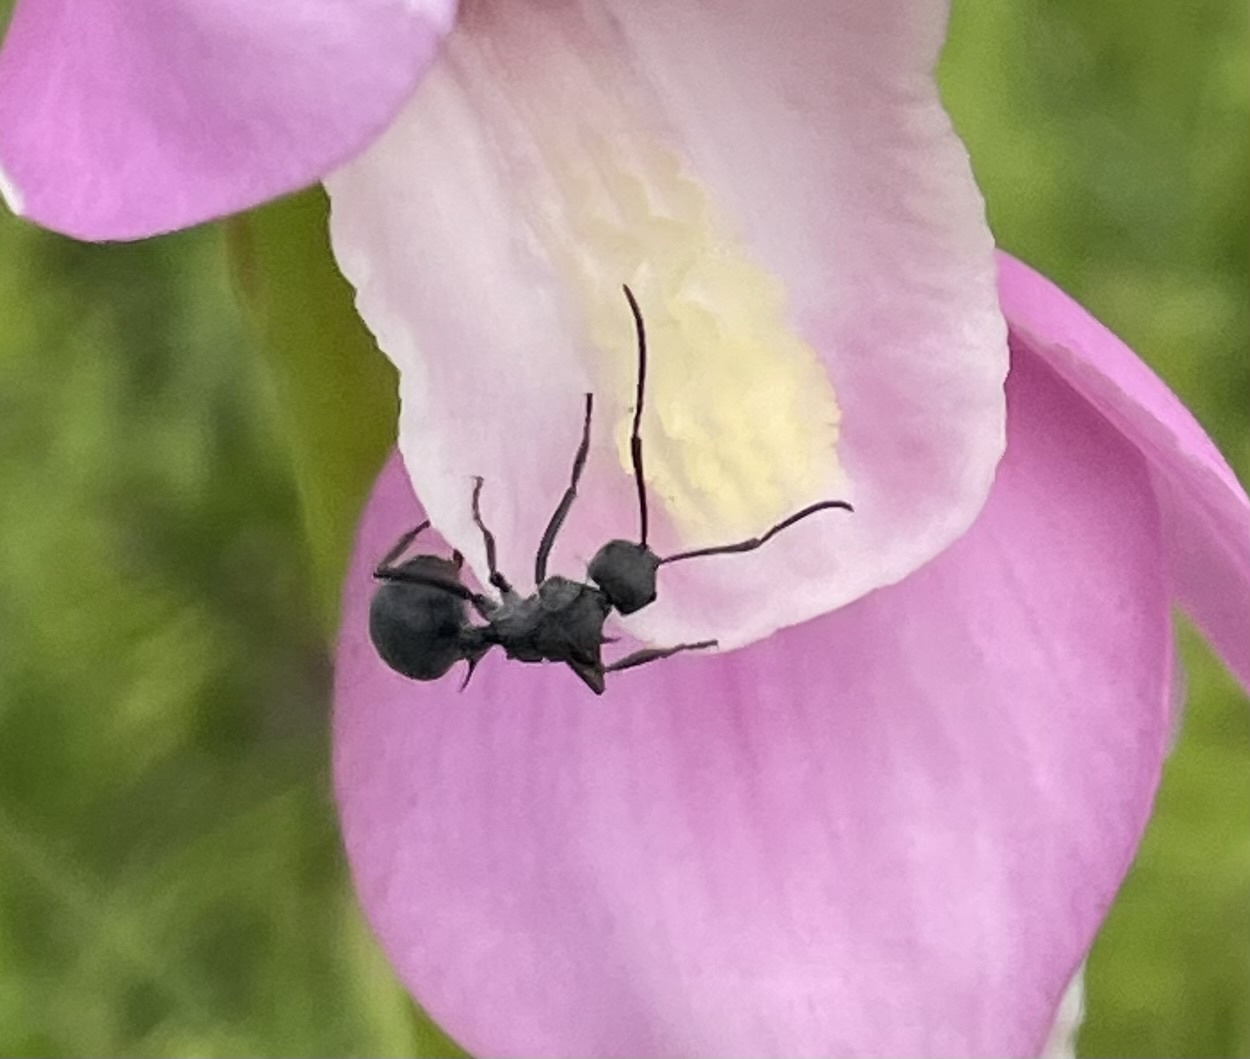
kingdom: Animalia
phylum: Arthropoda
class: Insecta
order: Hymenoptera
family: Formicidae
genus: Polyrhachis
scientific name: Polyrhachis schistacea
